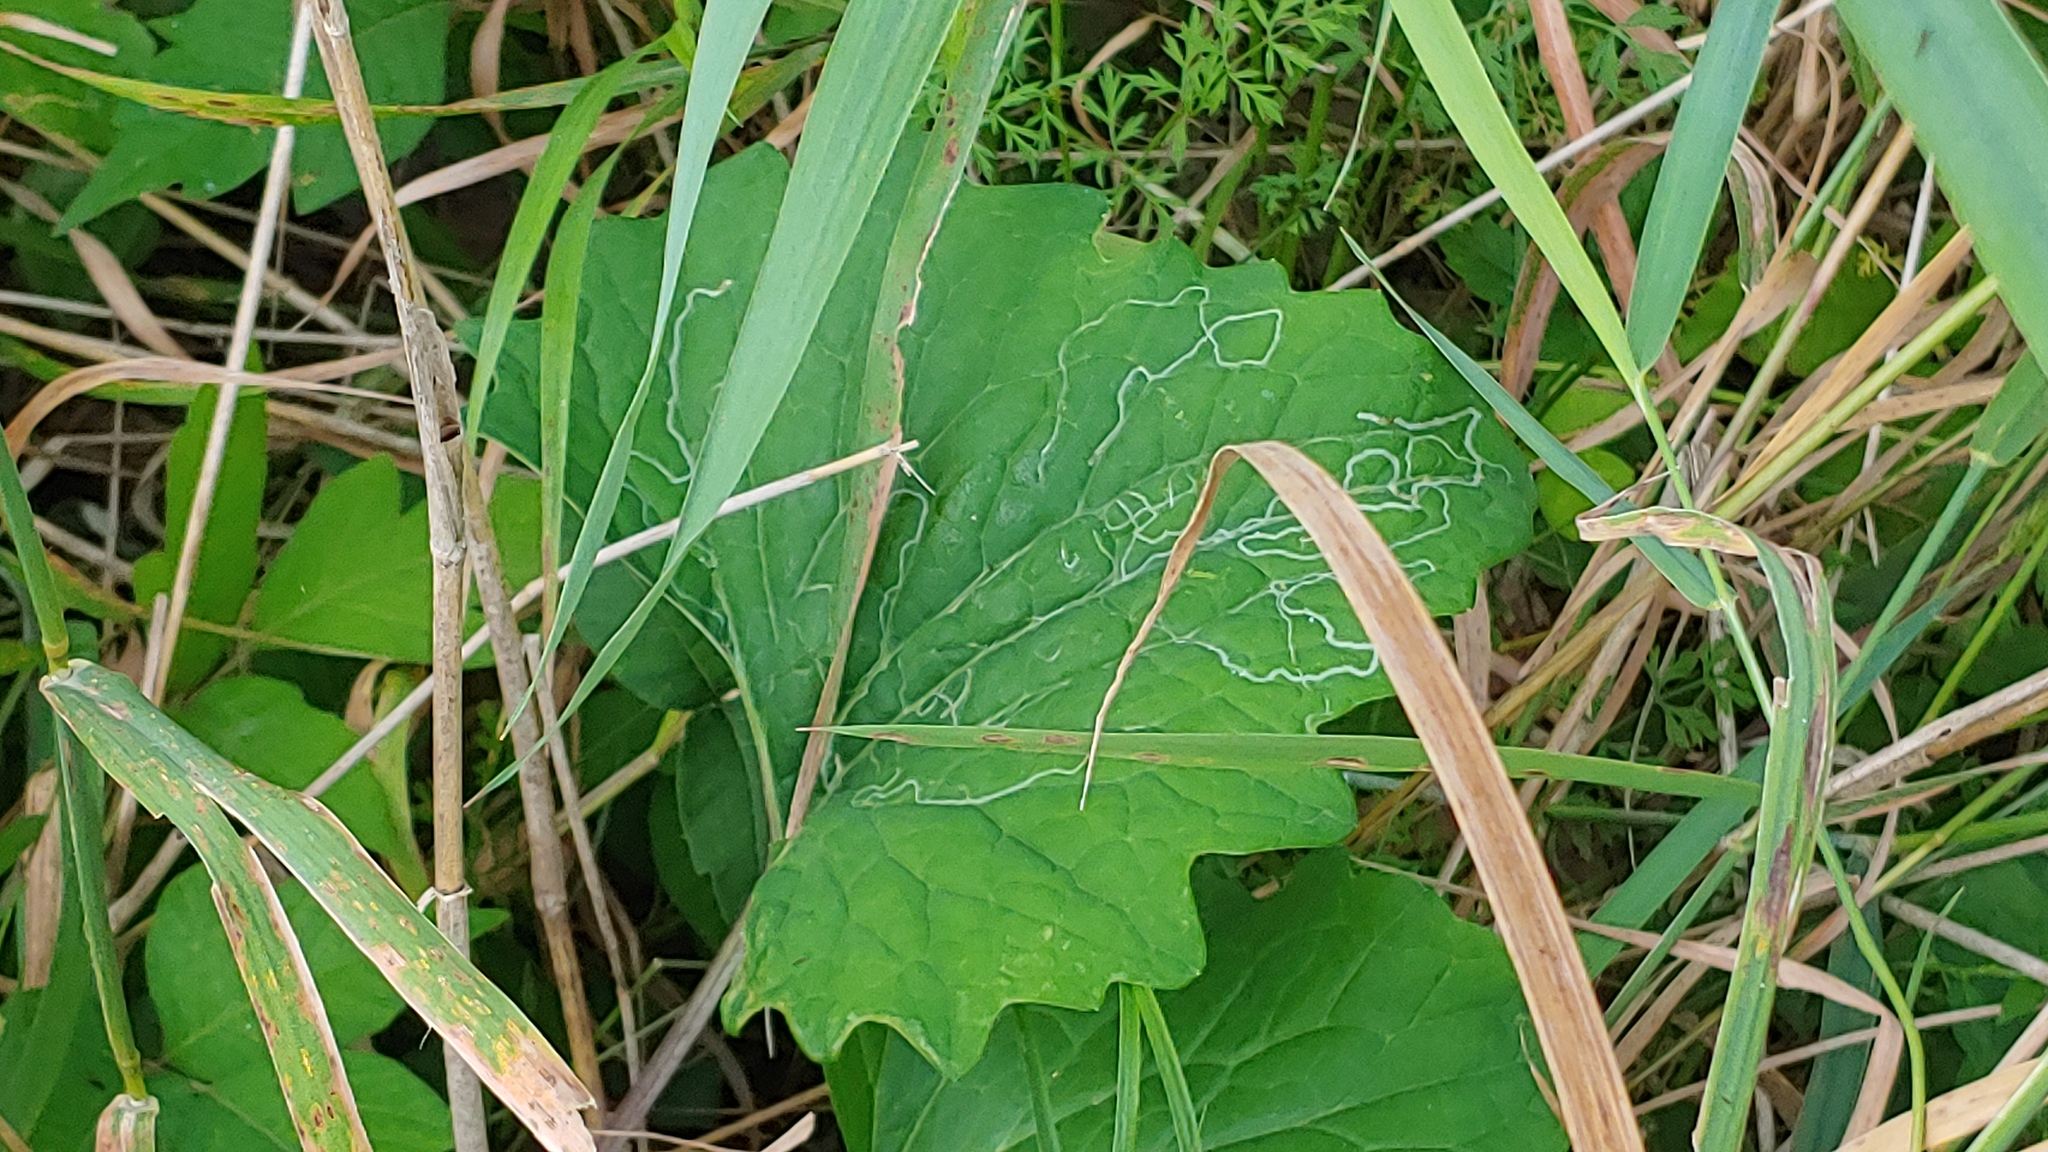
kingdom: Animalia
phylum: Arthropoda
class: Insecta
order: Lepidoptera
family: Gracillariidae
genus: Phyllocnistis
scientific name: Phyllocnistis insignis
